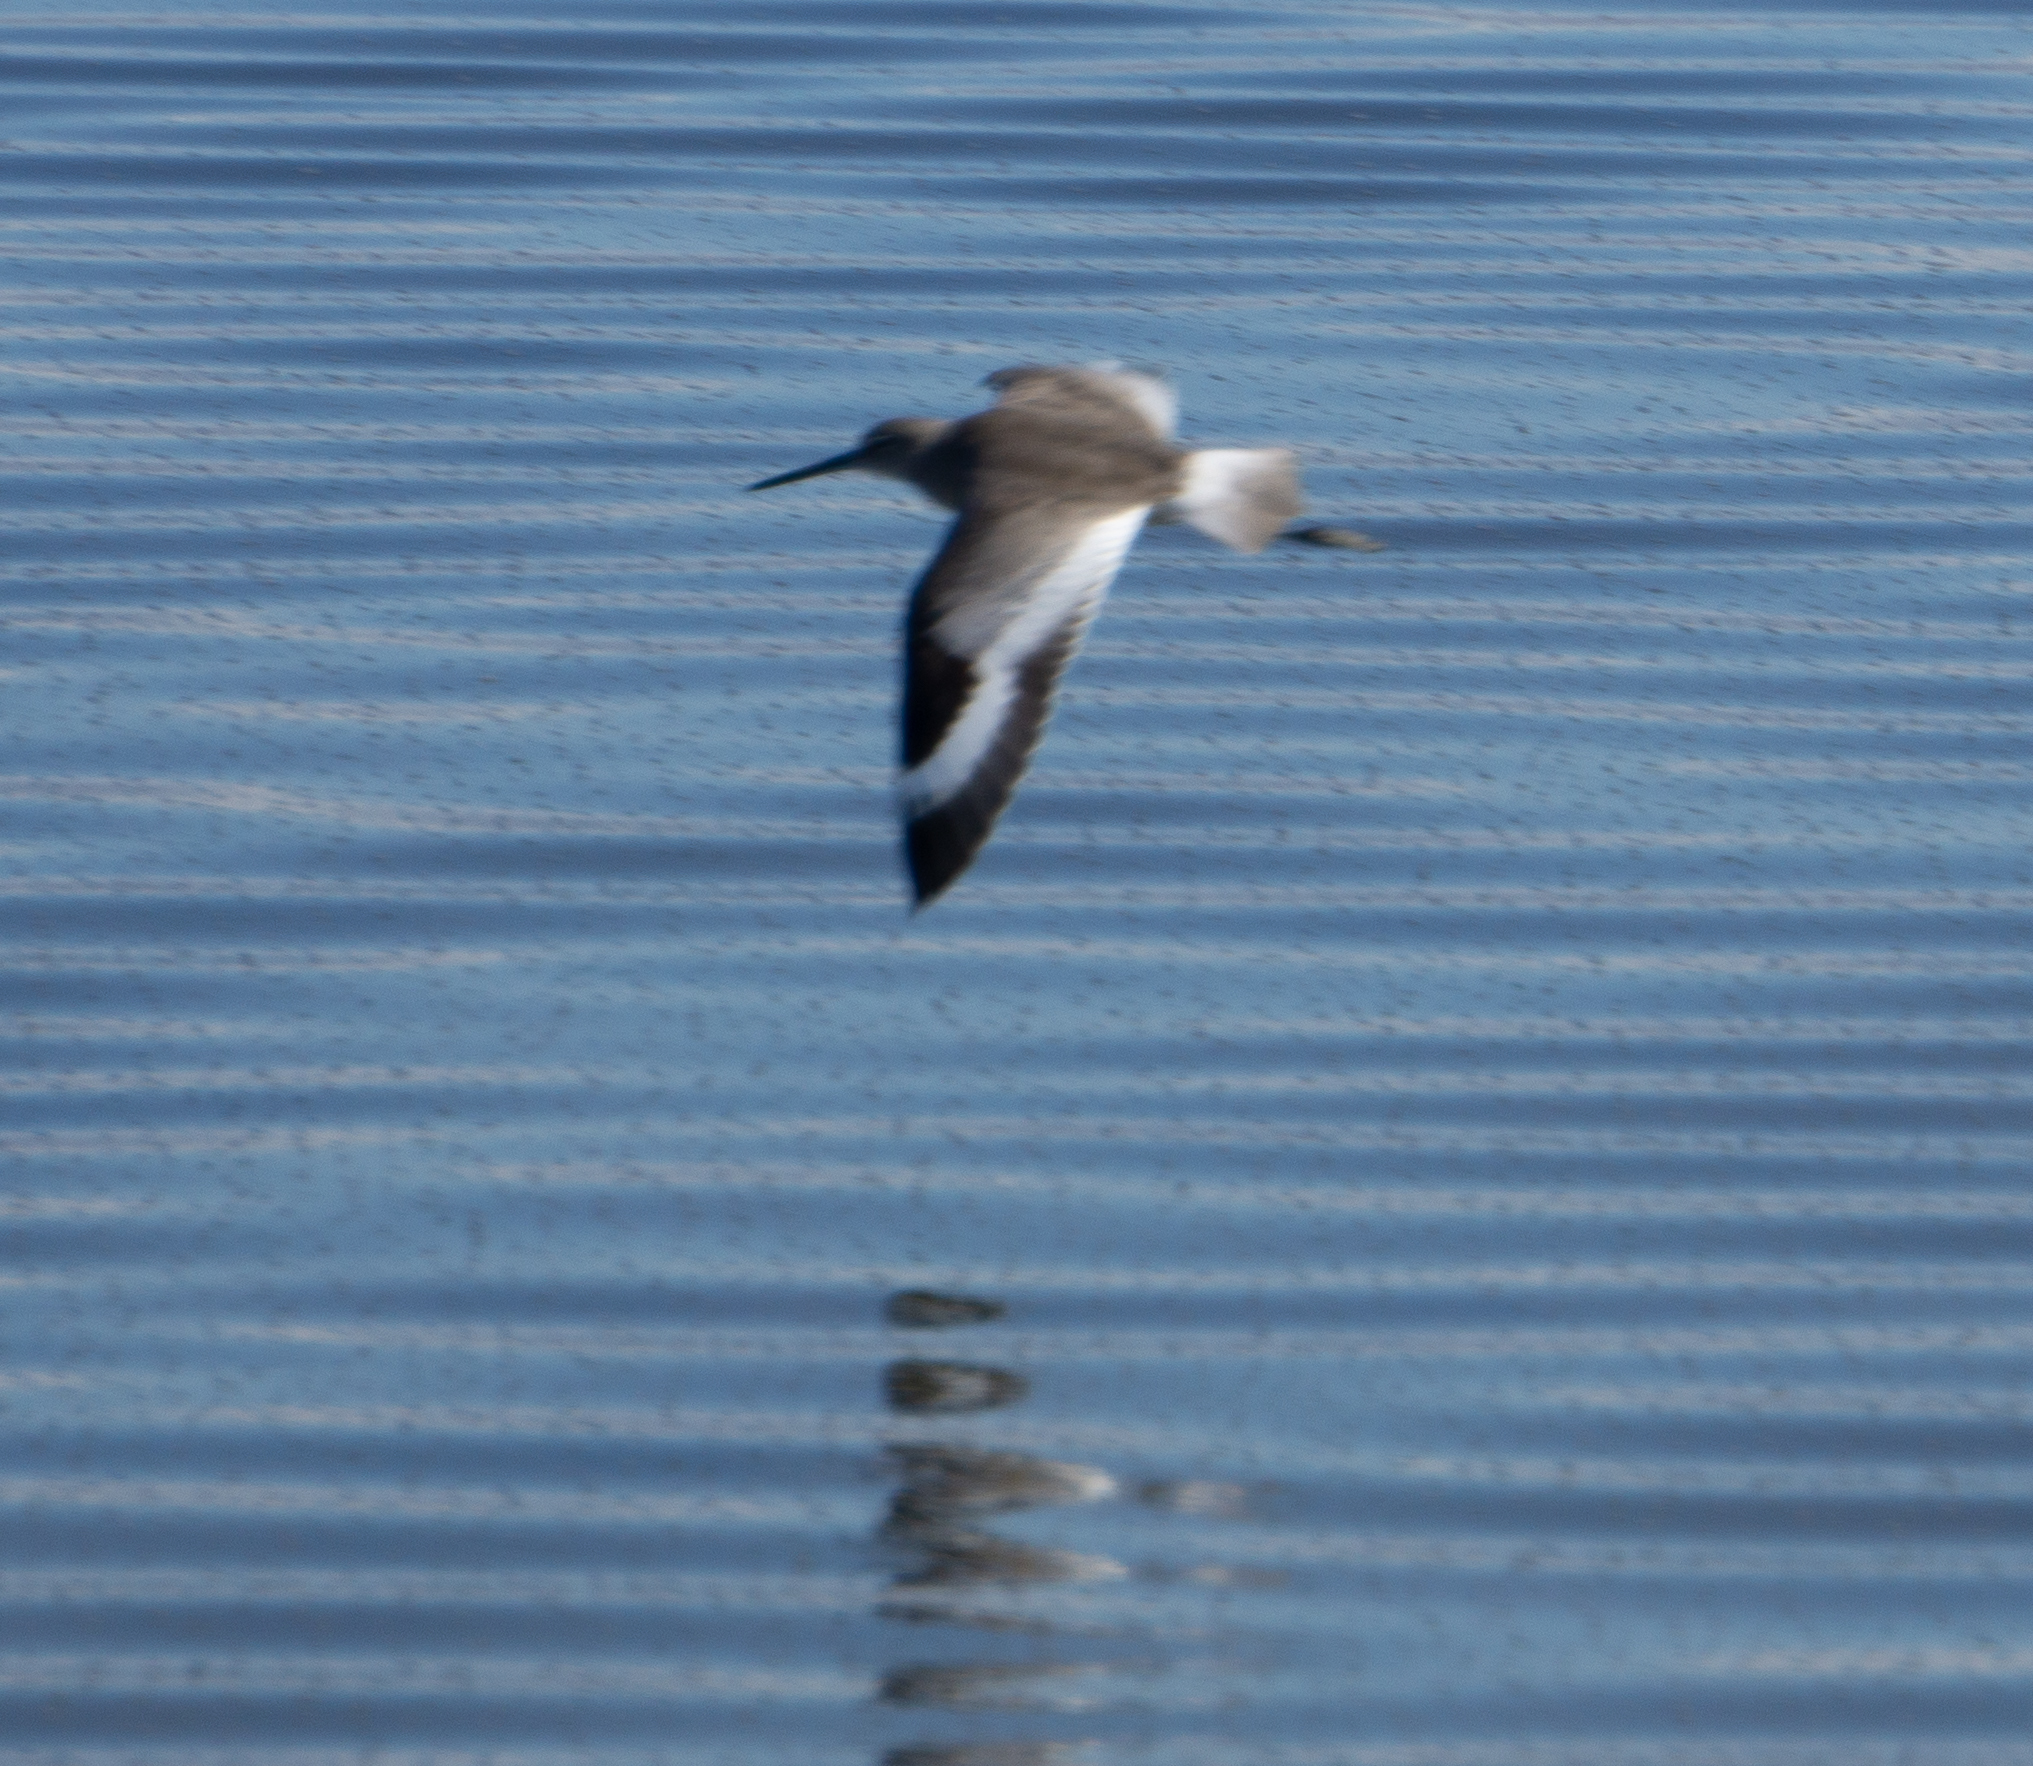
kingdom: Animalia
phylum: Chordata
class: Aves
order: Charadriiformes
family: Scolopacidae
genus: Tringa
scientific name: Tringa semipalmata
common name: Willet
